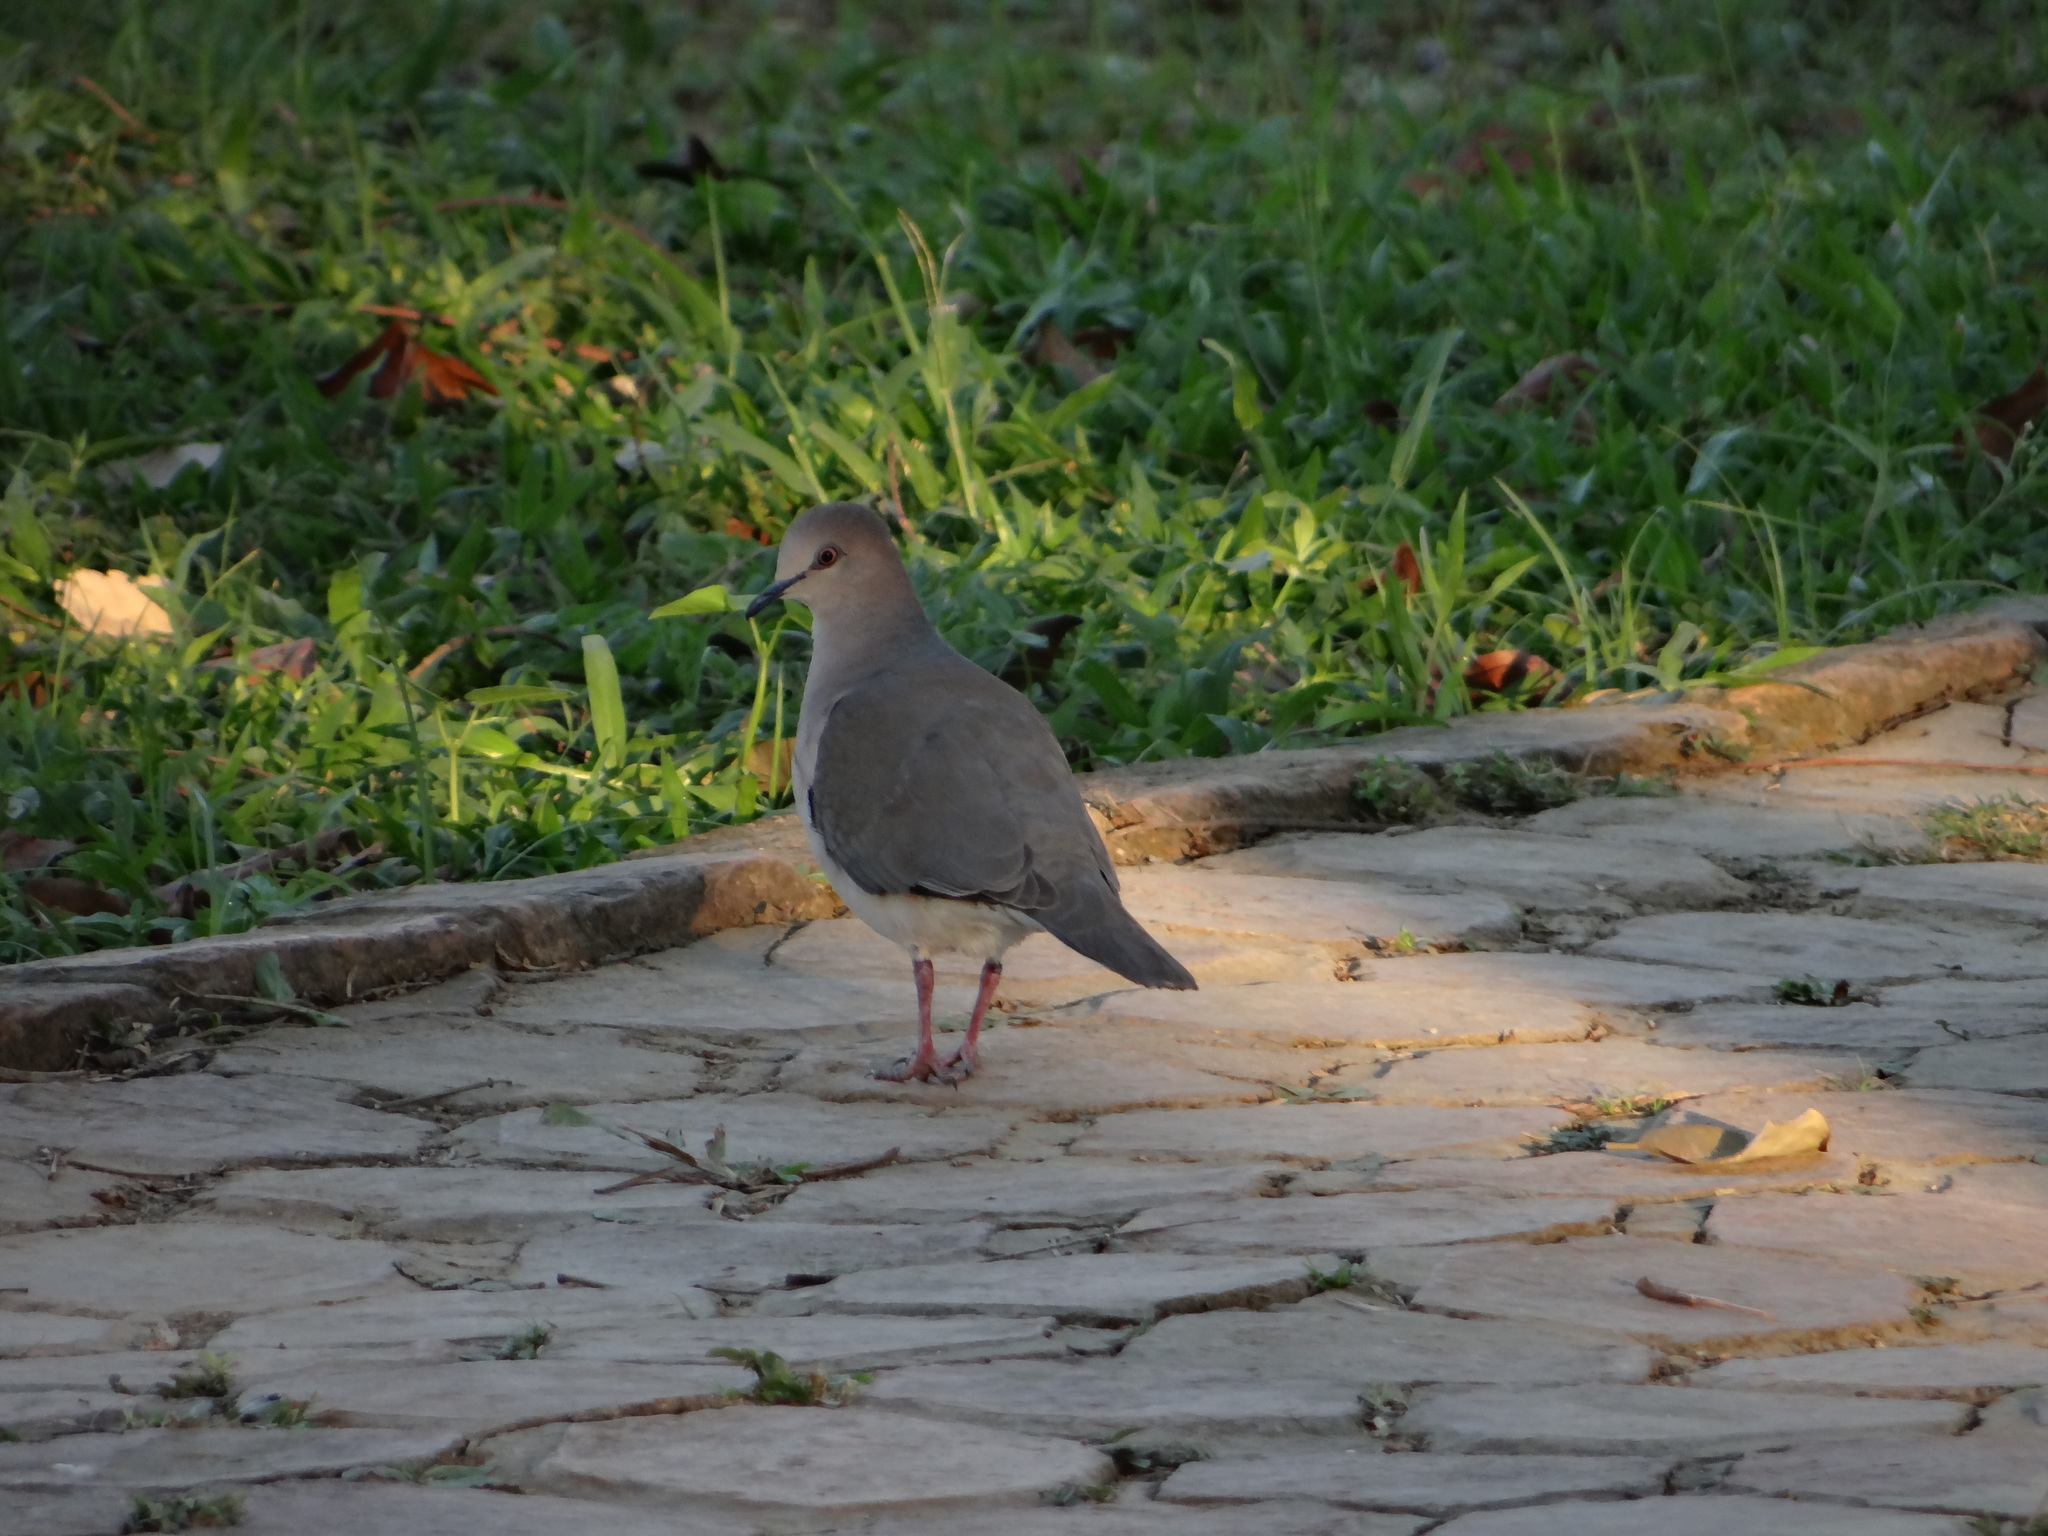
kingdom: Animalia
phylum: Chordata
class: Aves
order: Columbiformes
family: Columbidae
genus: Leptotila
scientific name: Leptotila verreauxi
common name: White-tipped dove
